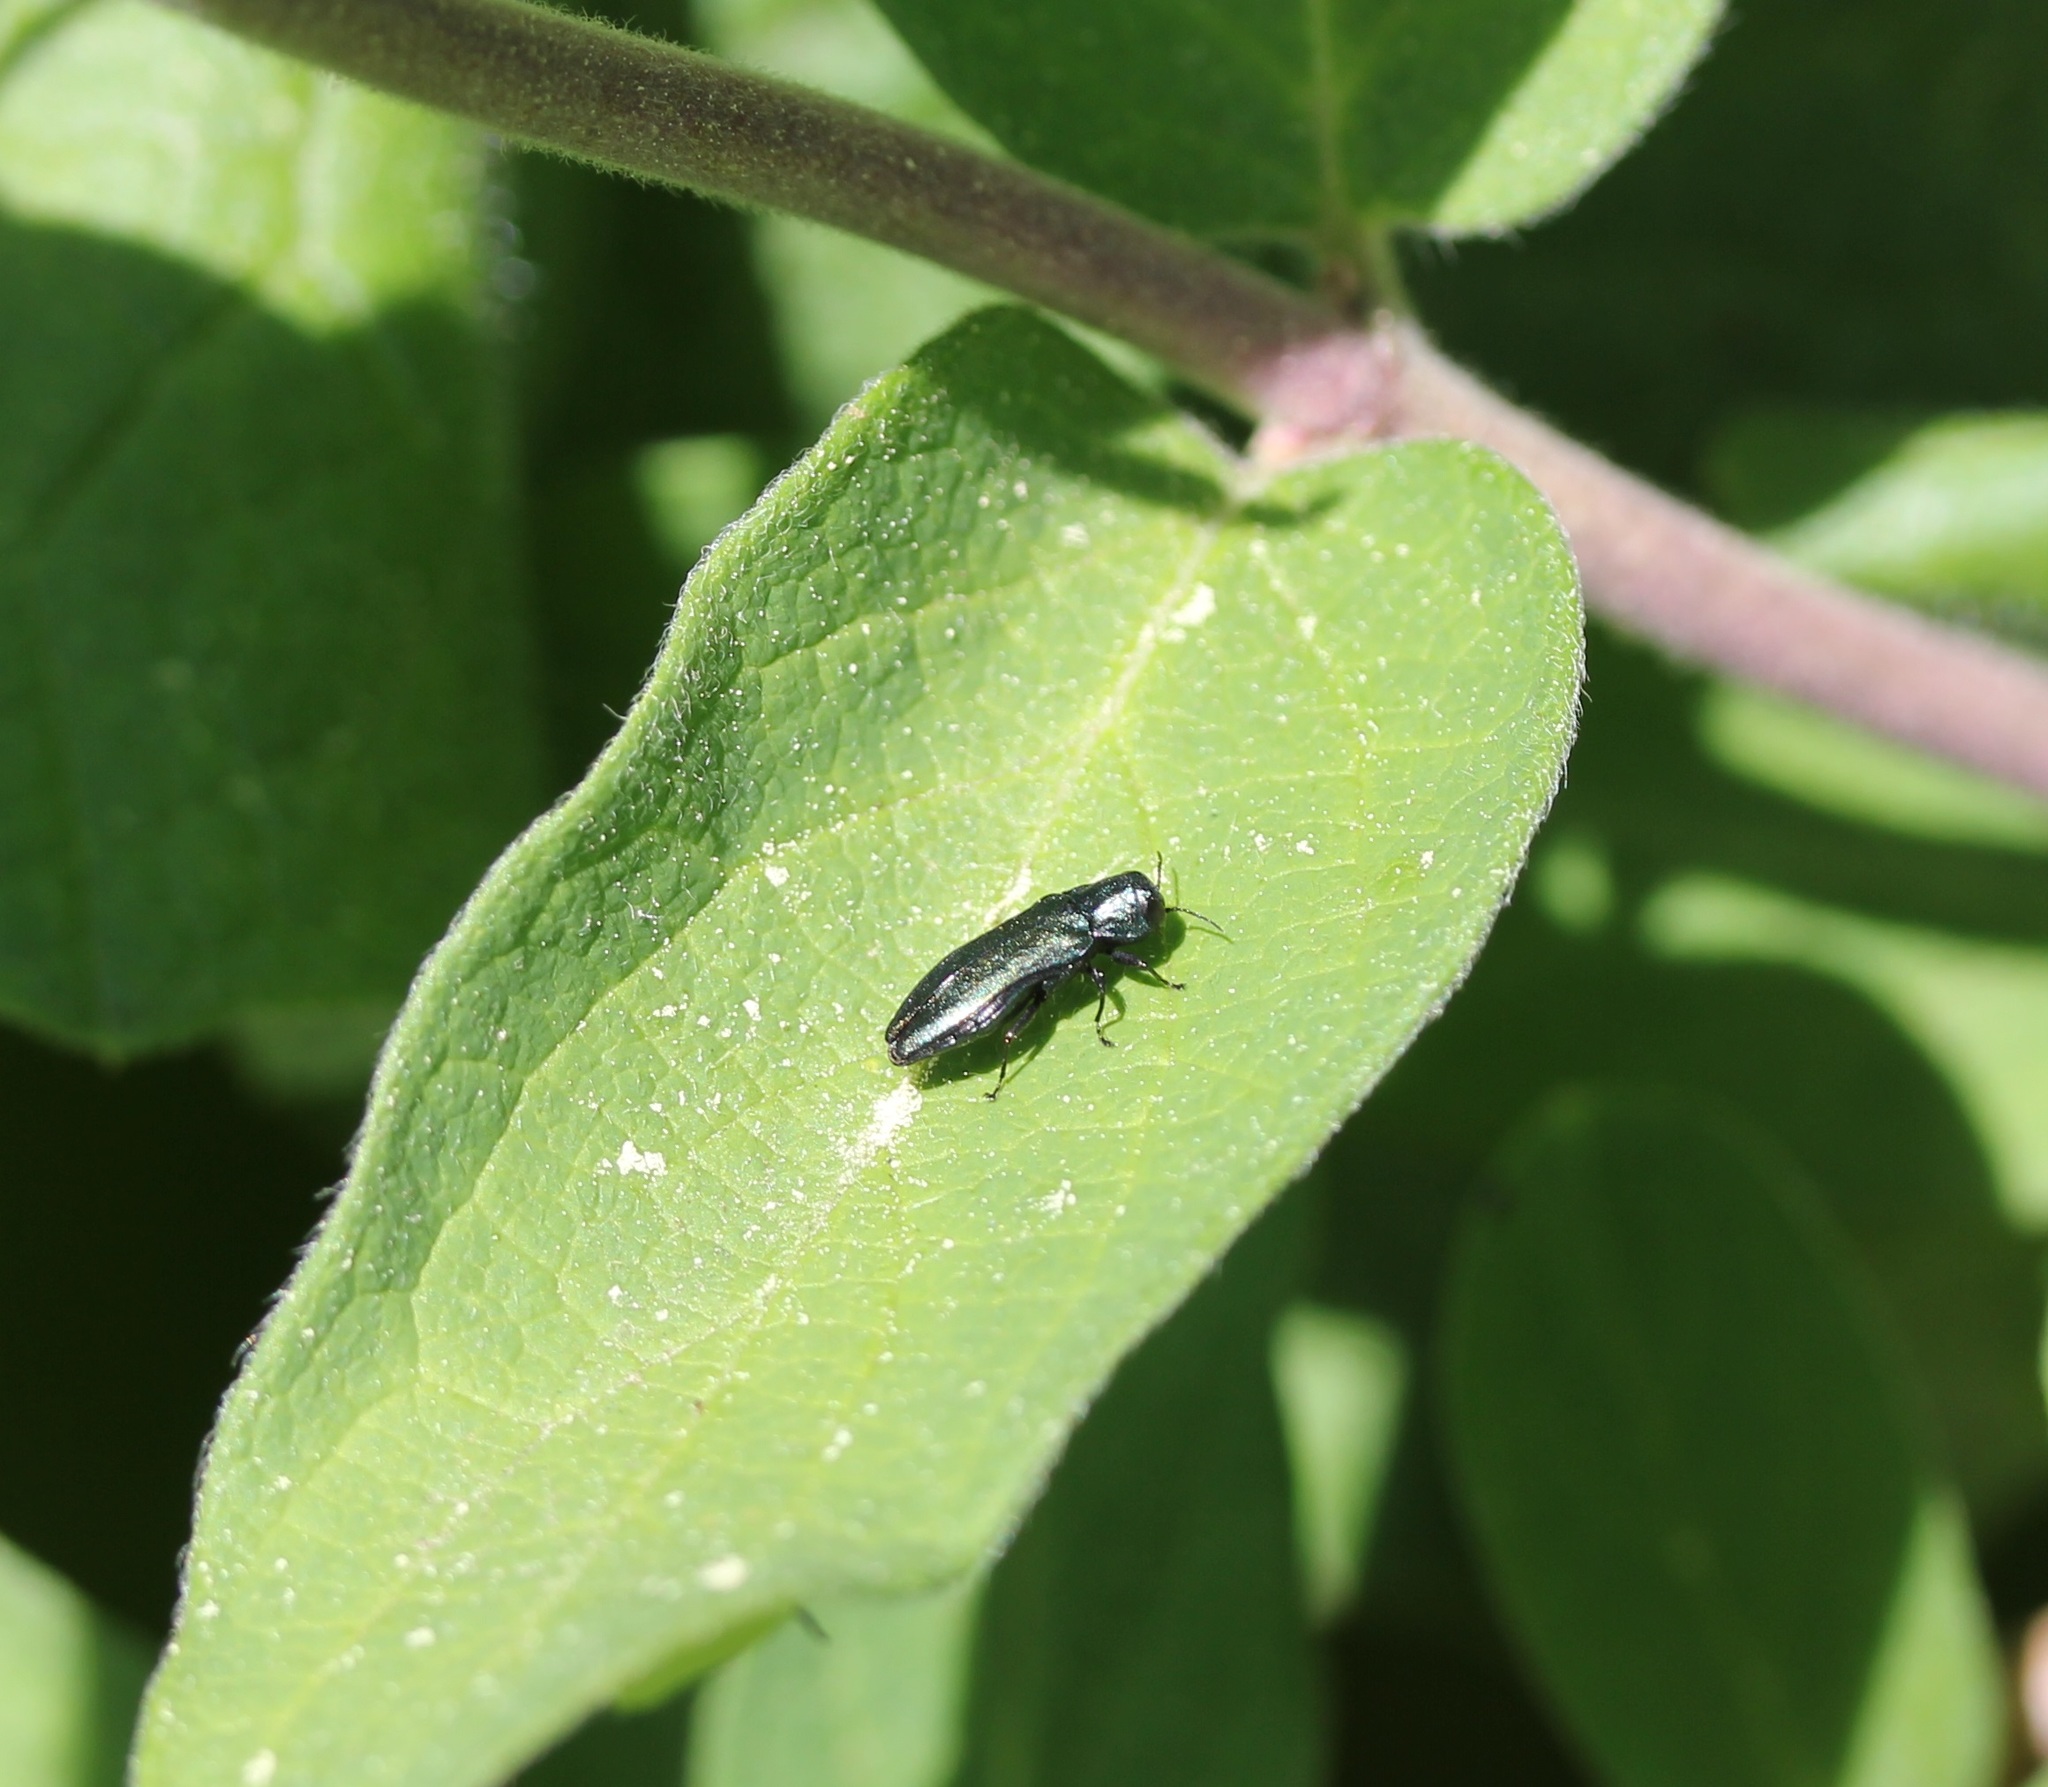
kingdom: Animalia
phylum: Arthropoda
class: Insecta
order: Coleoptera
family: Buprestidae
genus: Agrilus
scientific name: Agrilus cyanescens
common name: Bluish borer beetle
